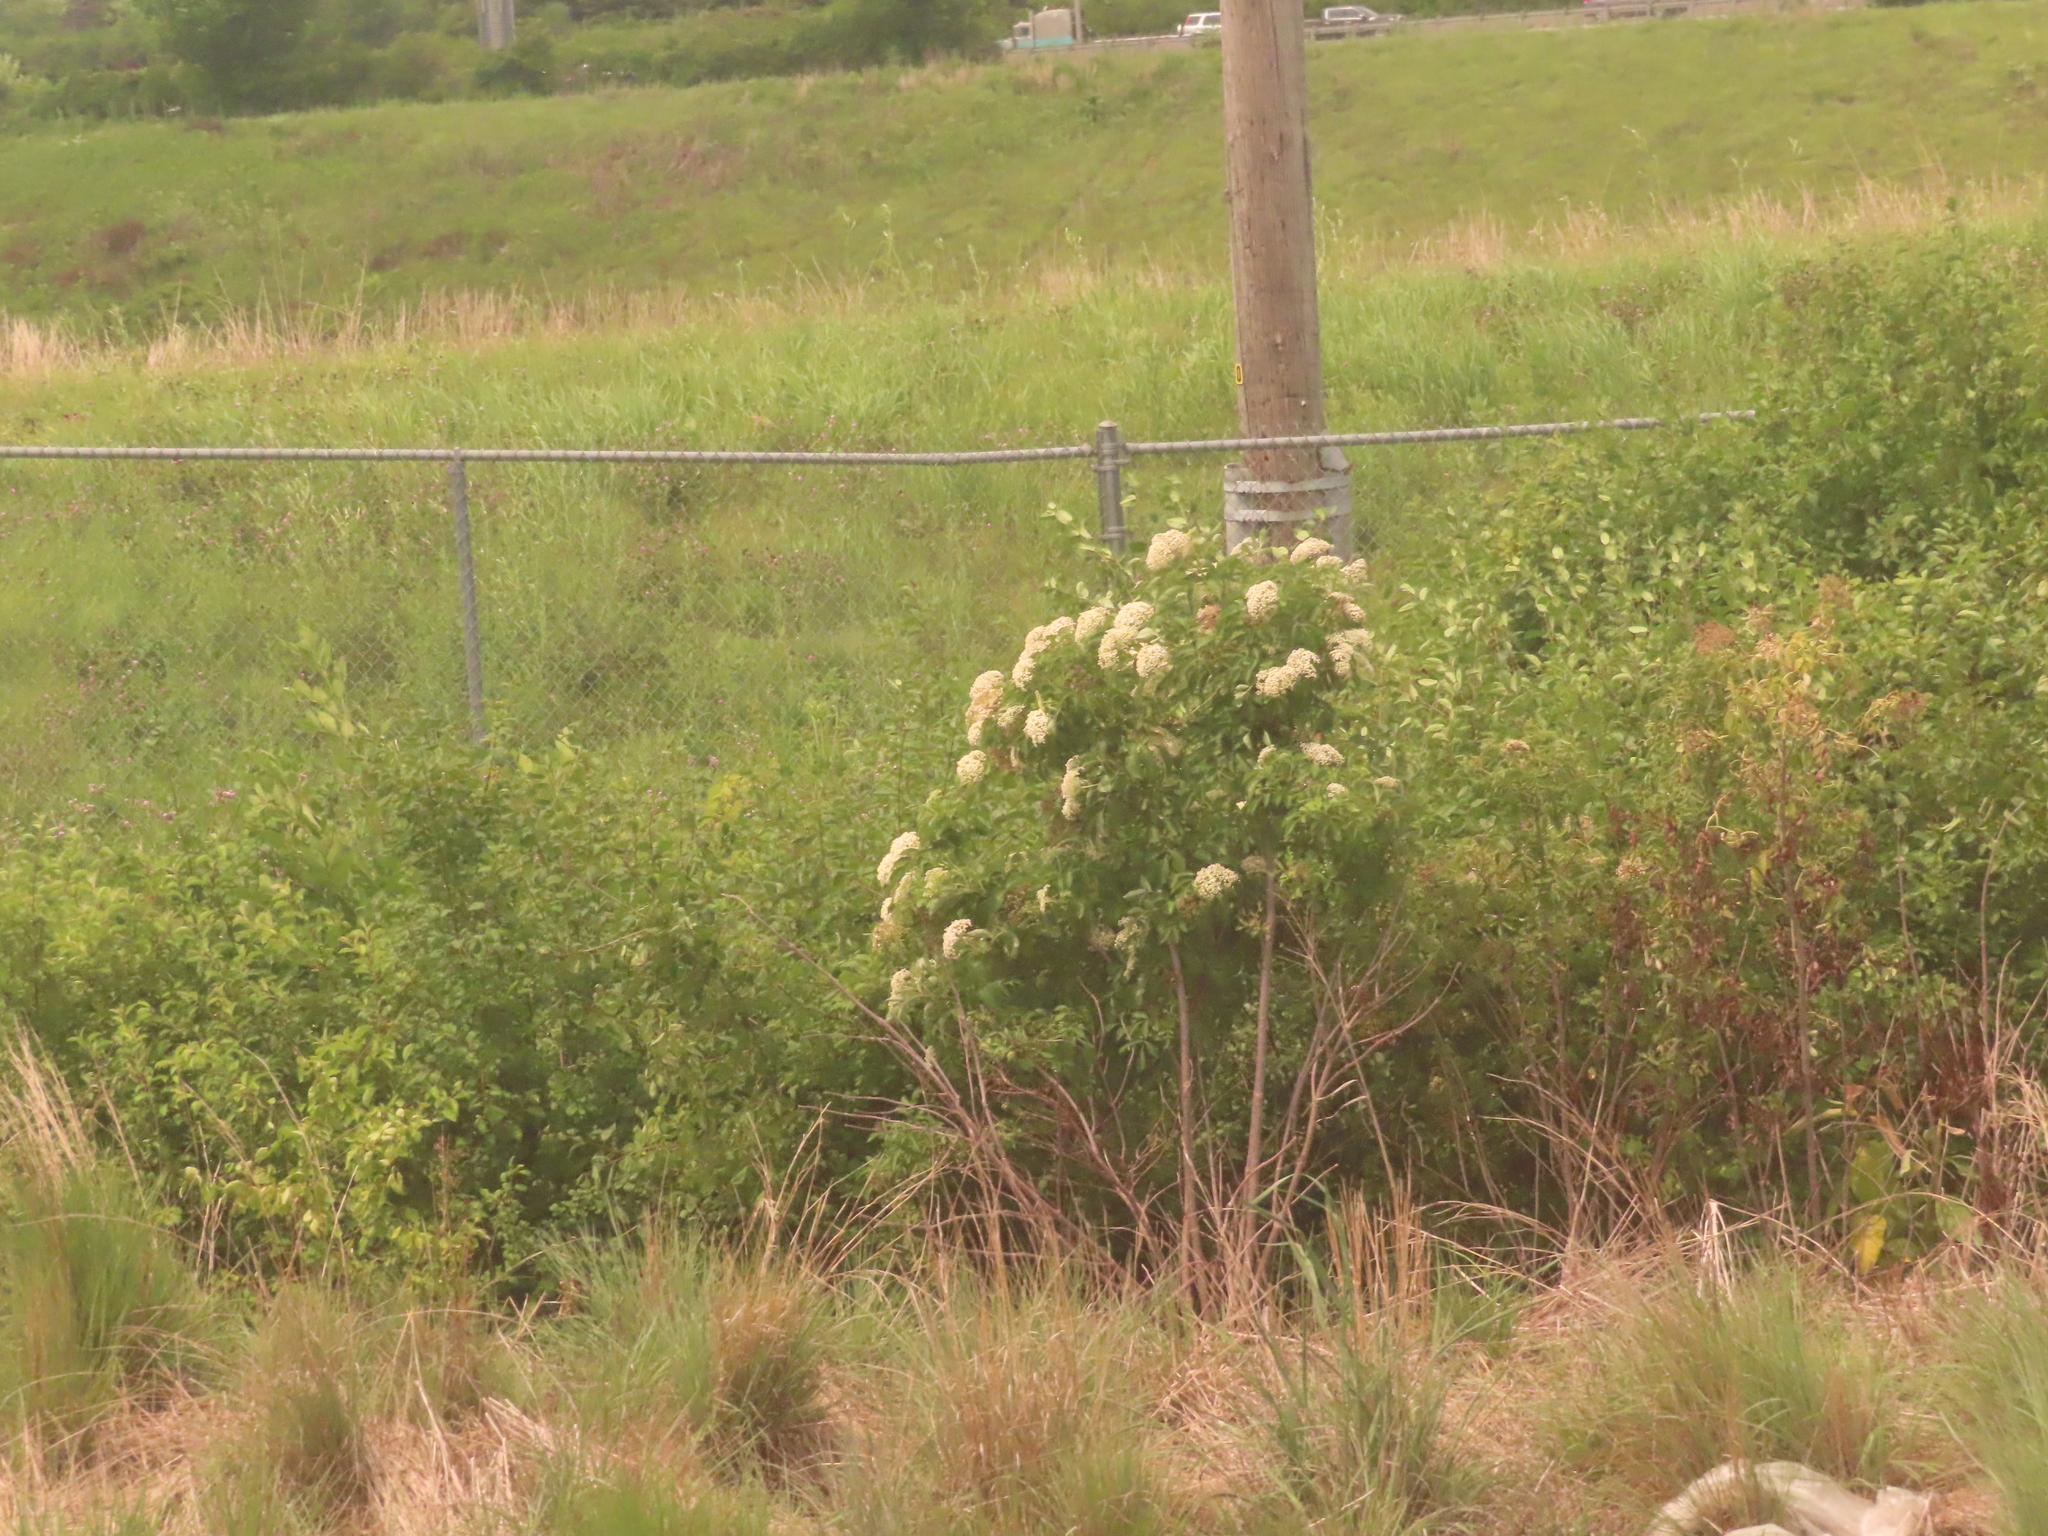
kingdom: Plantae
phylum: Tracheophyta
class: Magnoliopsida
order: Dipsacales
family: Viburnaceae
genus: Sambucus
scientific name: Sambucus canadensis
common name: American elder
